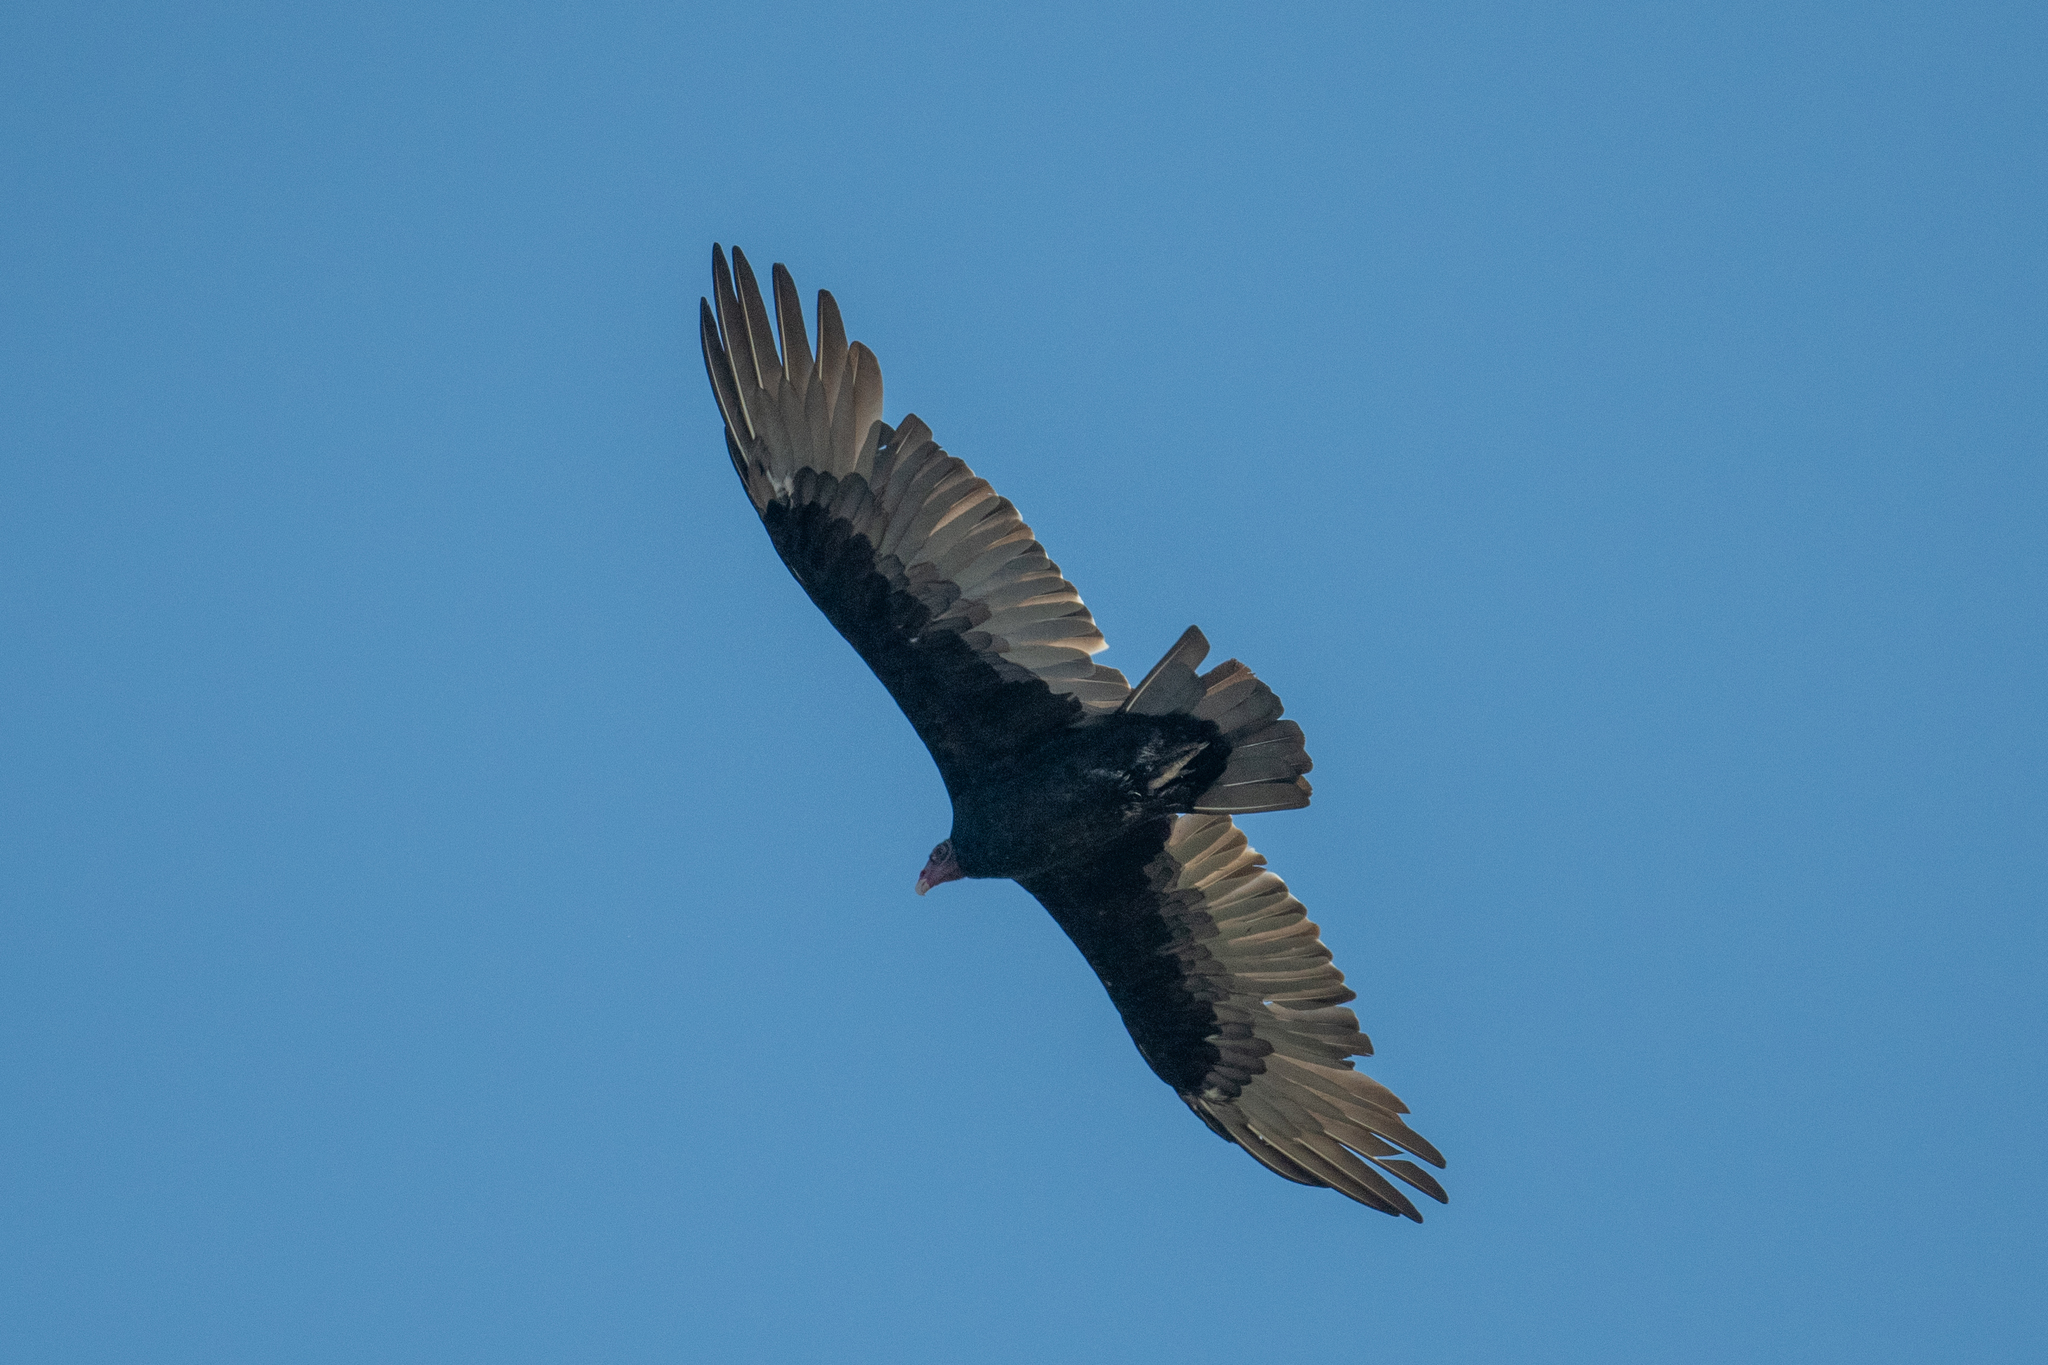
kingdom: Animalia
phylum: Chordata
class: Aves
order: Accipitriformes
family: Cathartidae
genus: Cathartes
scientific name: Cathartes aura
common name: Turkey vulture
